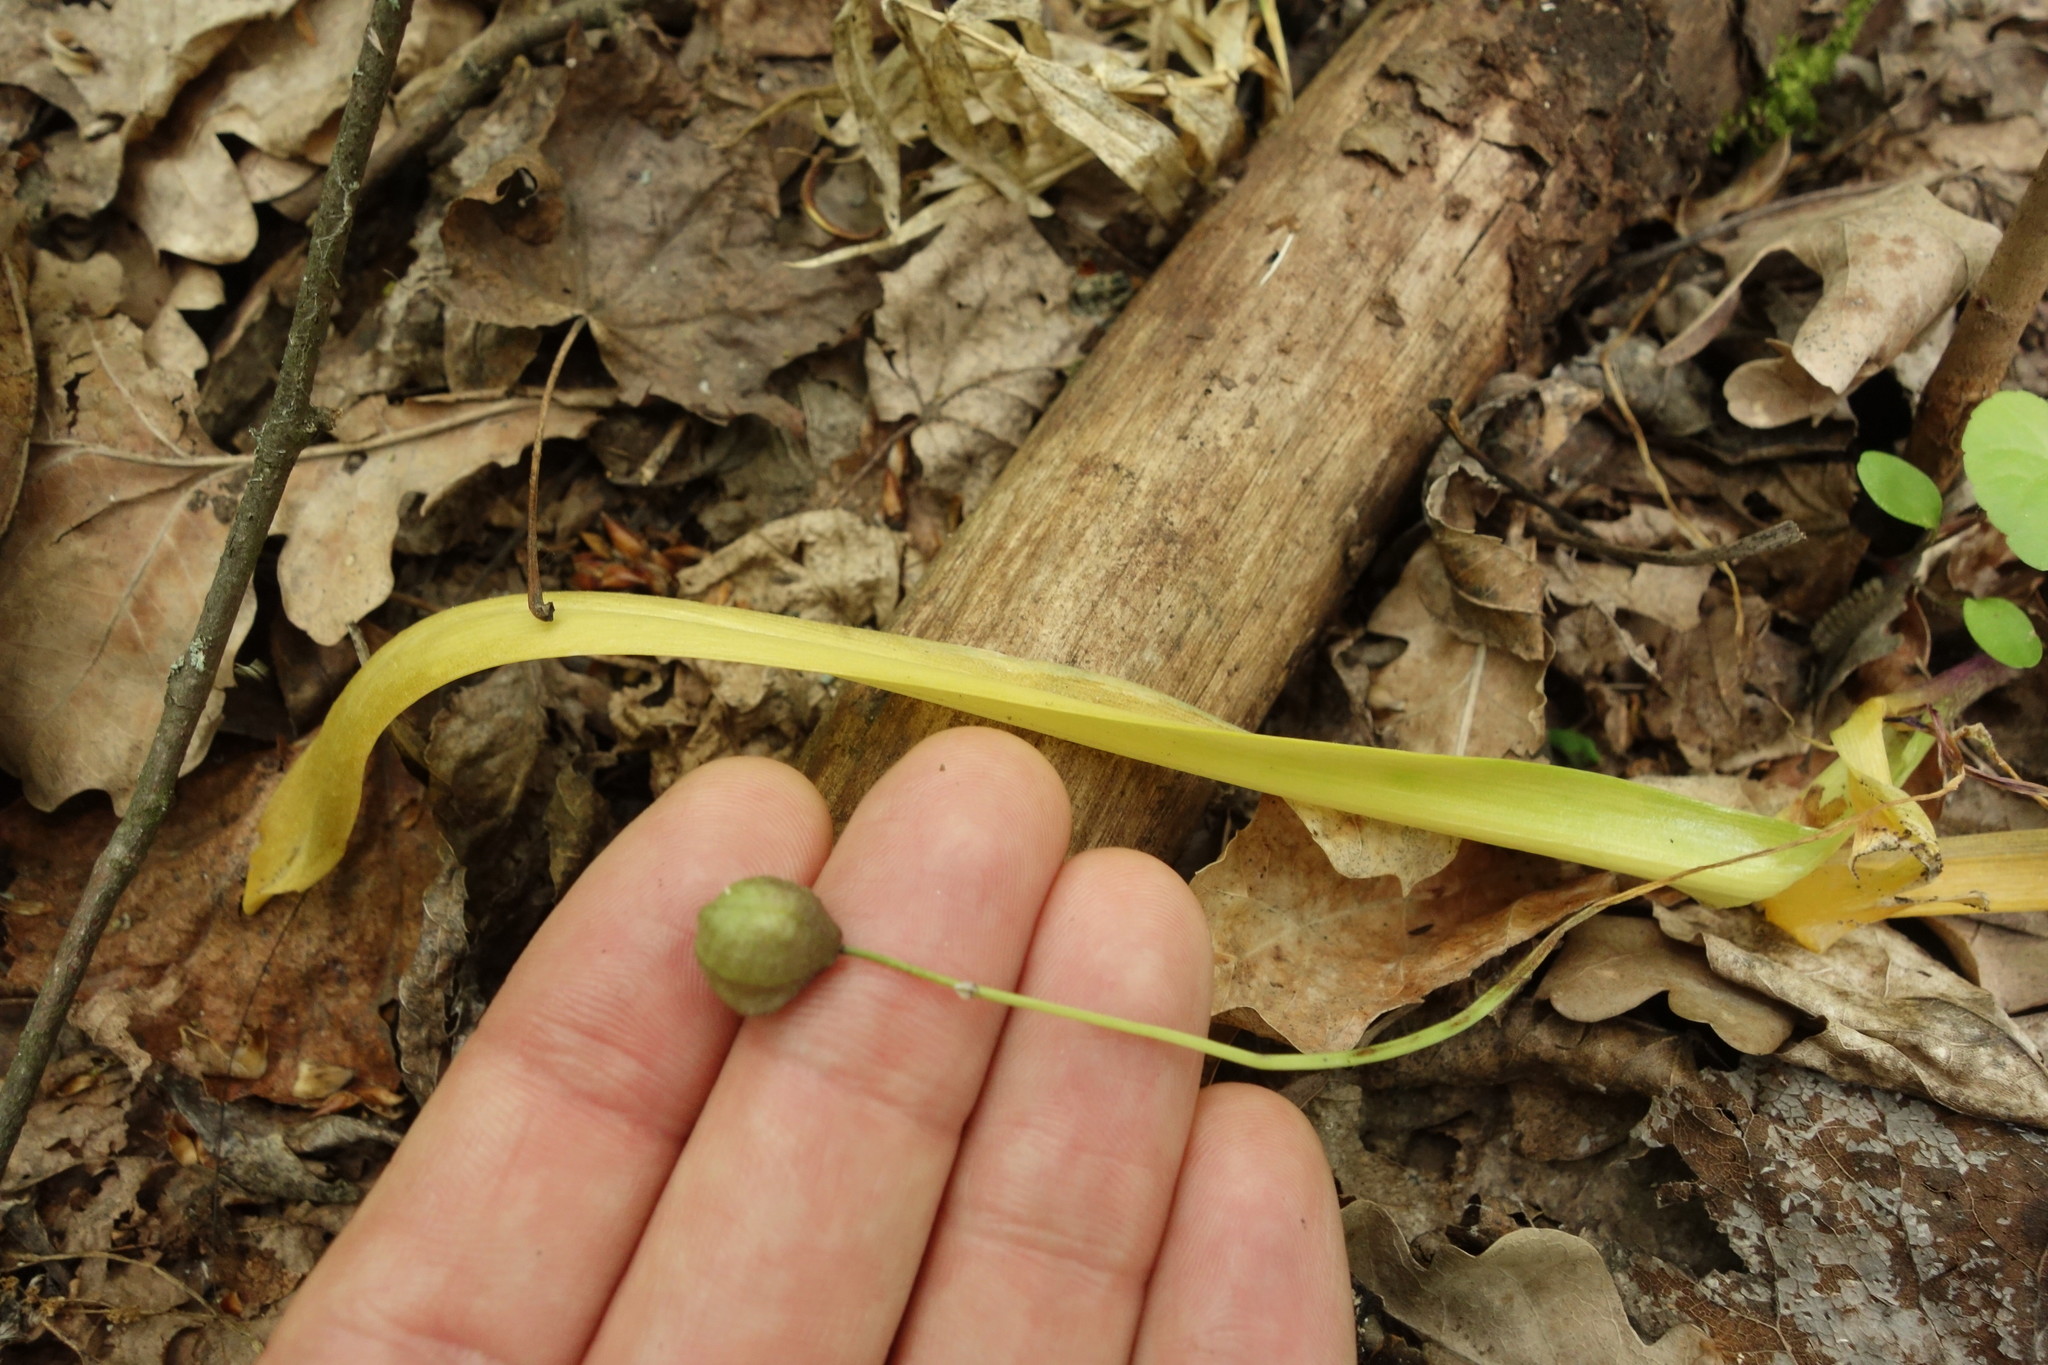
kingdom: Plantae
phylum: Tracheophyta
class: Liliopsida
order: Asparagales
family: Asparagaceae
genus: Scilla
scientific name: Scilla siberica
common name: Siberian squill
